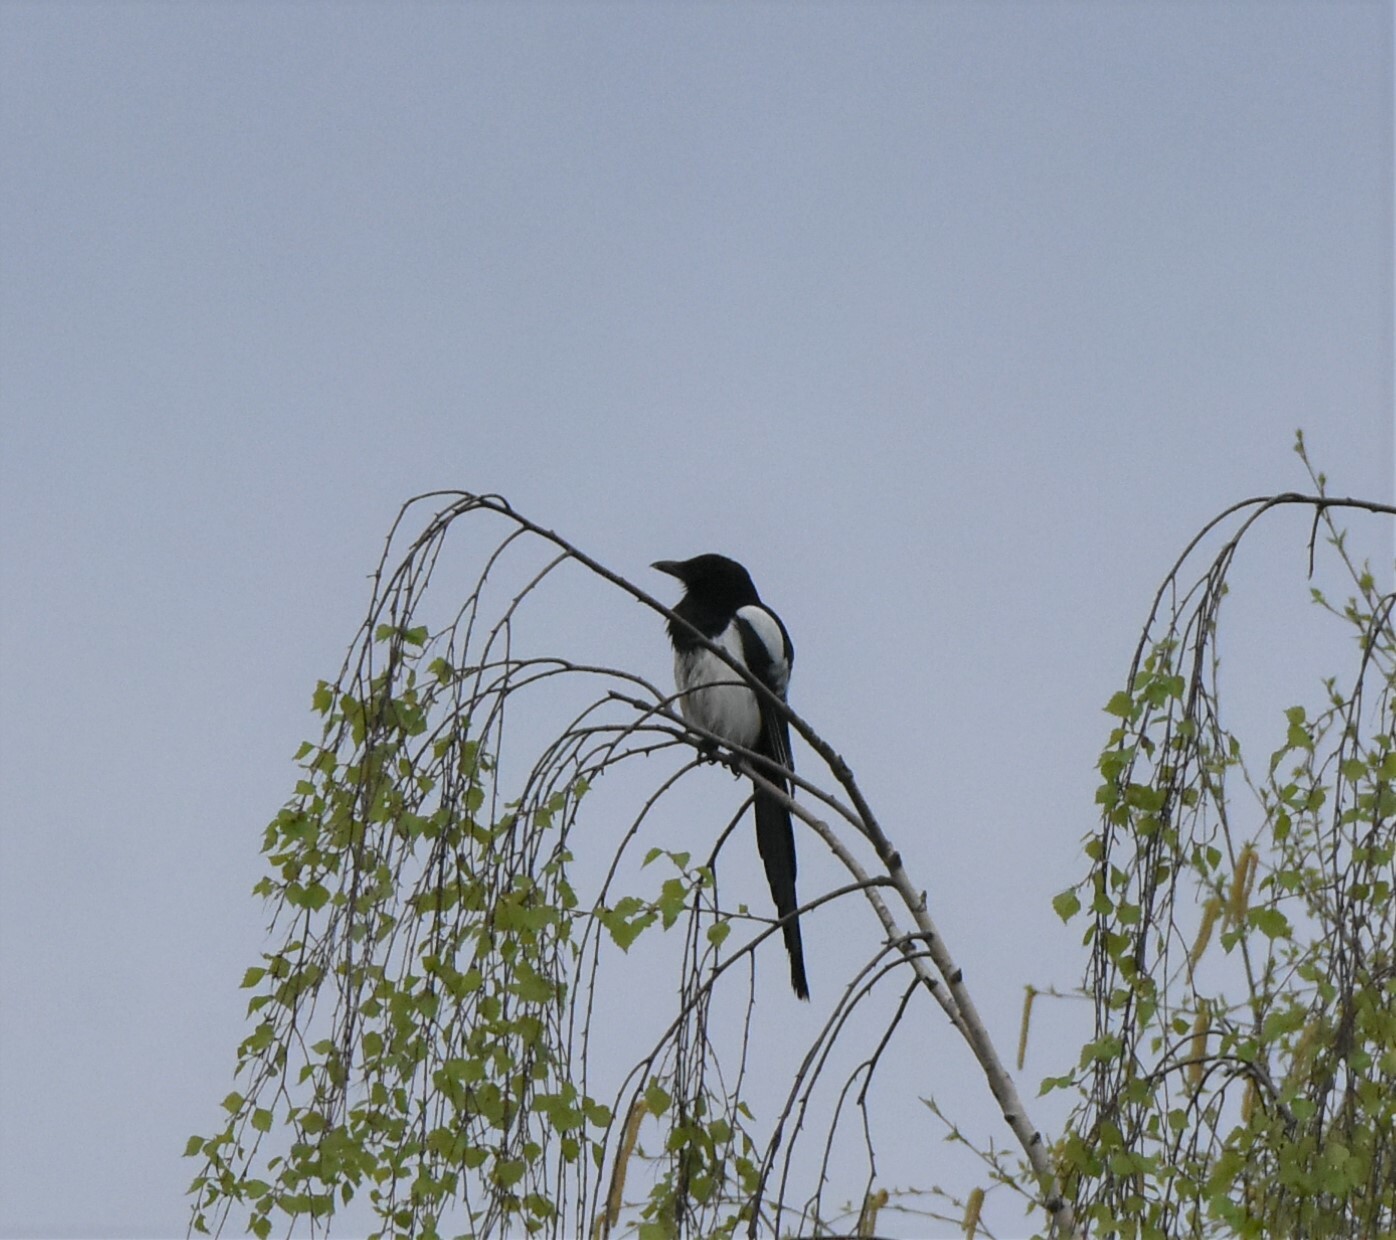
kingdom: Animalia
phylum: Chordata
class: Aves
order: Passeriformes
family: Corvidae
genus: Pica
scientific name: Pica pica
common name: Eurasian magpie
